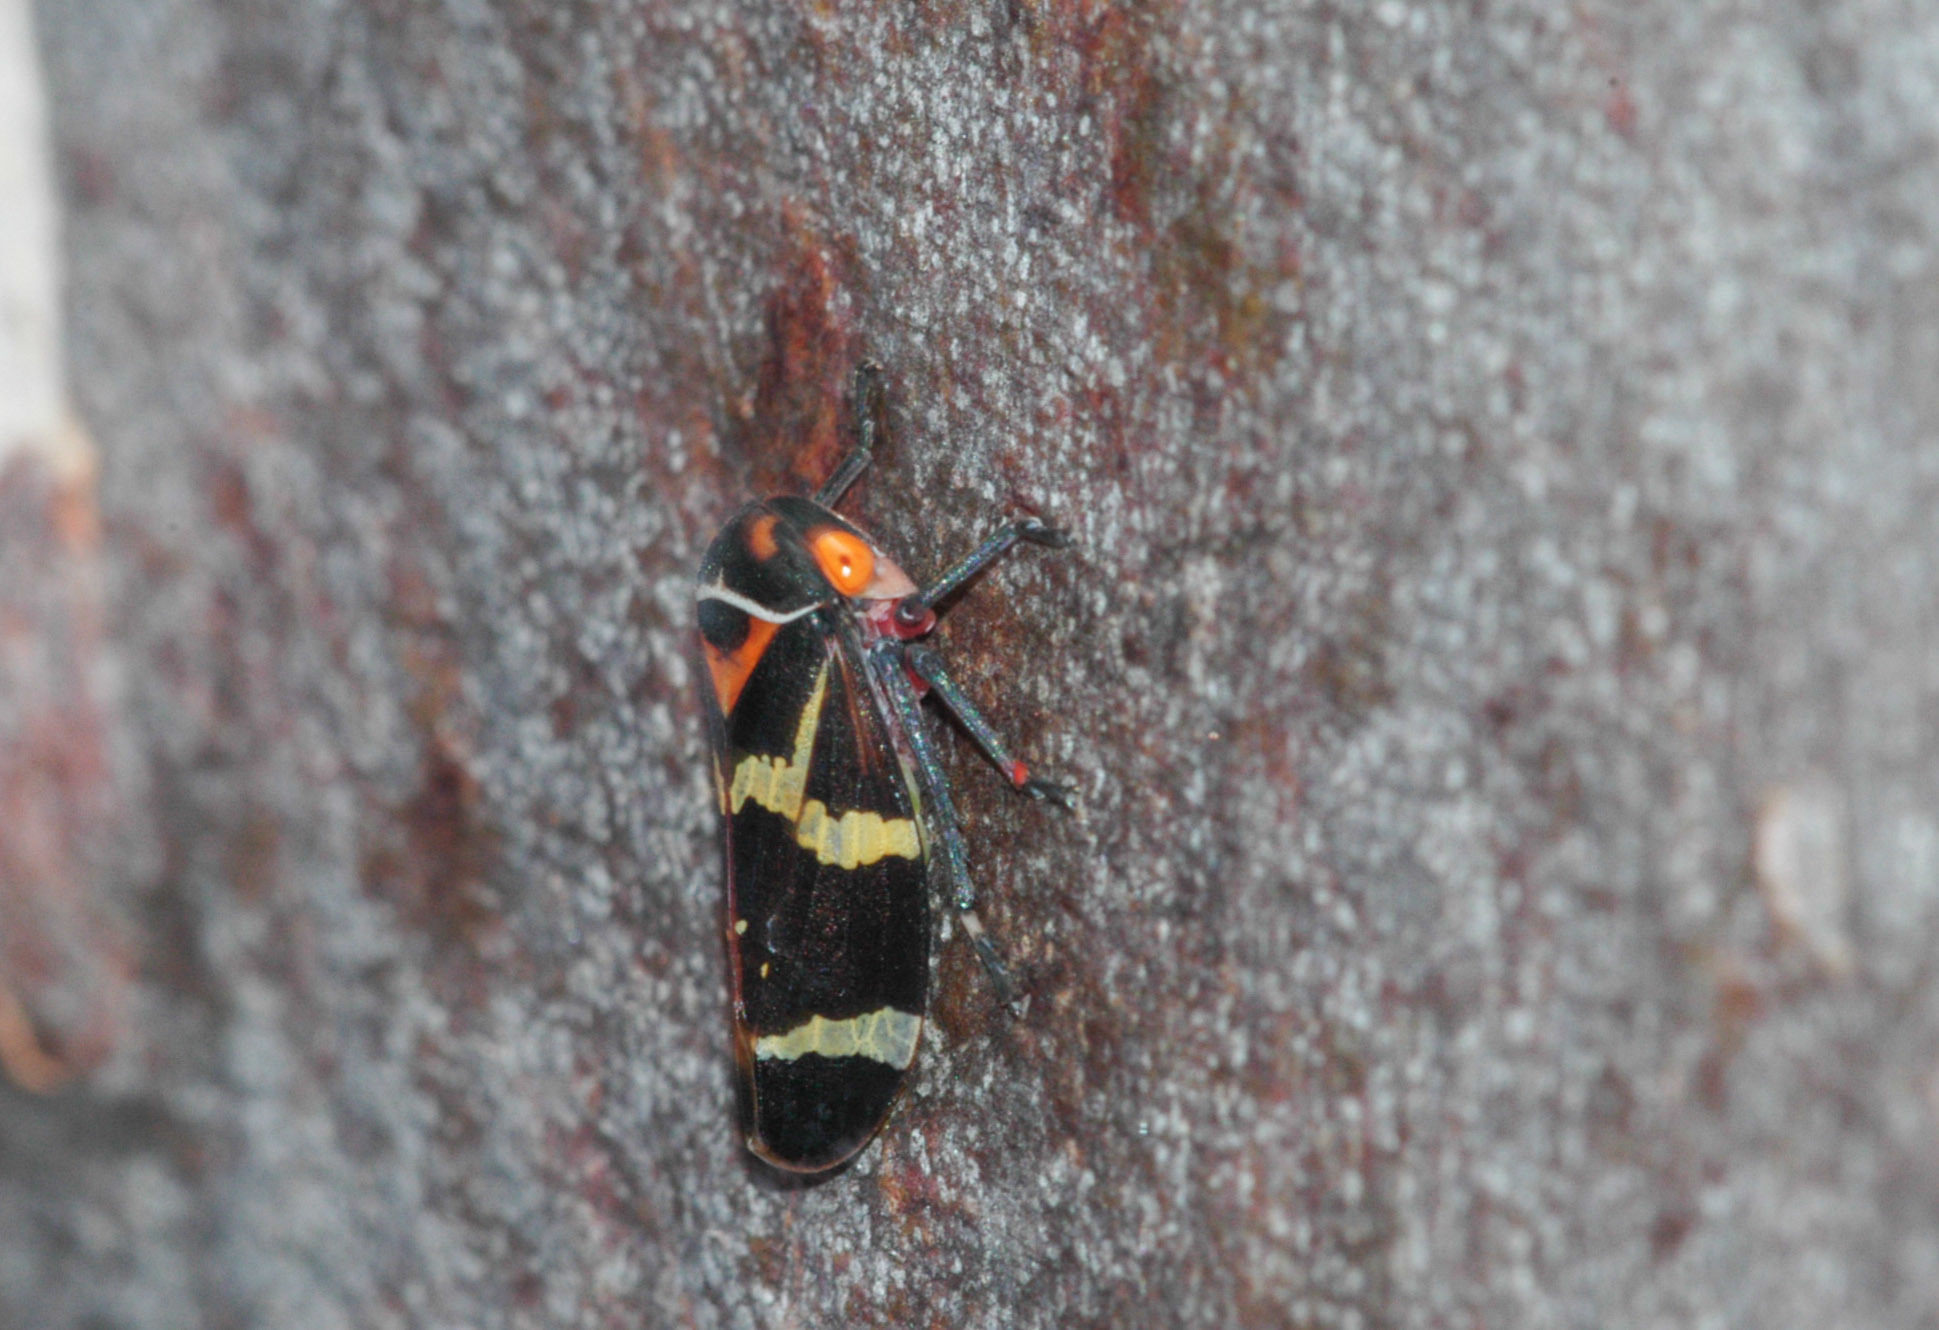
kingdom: Animalia
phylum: Arthropoda
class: Insecta
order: Hemiptera
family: Cicadellidae
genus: Eurymeloides
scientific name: Eurymeloides pulchra
